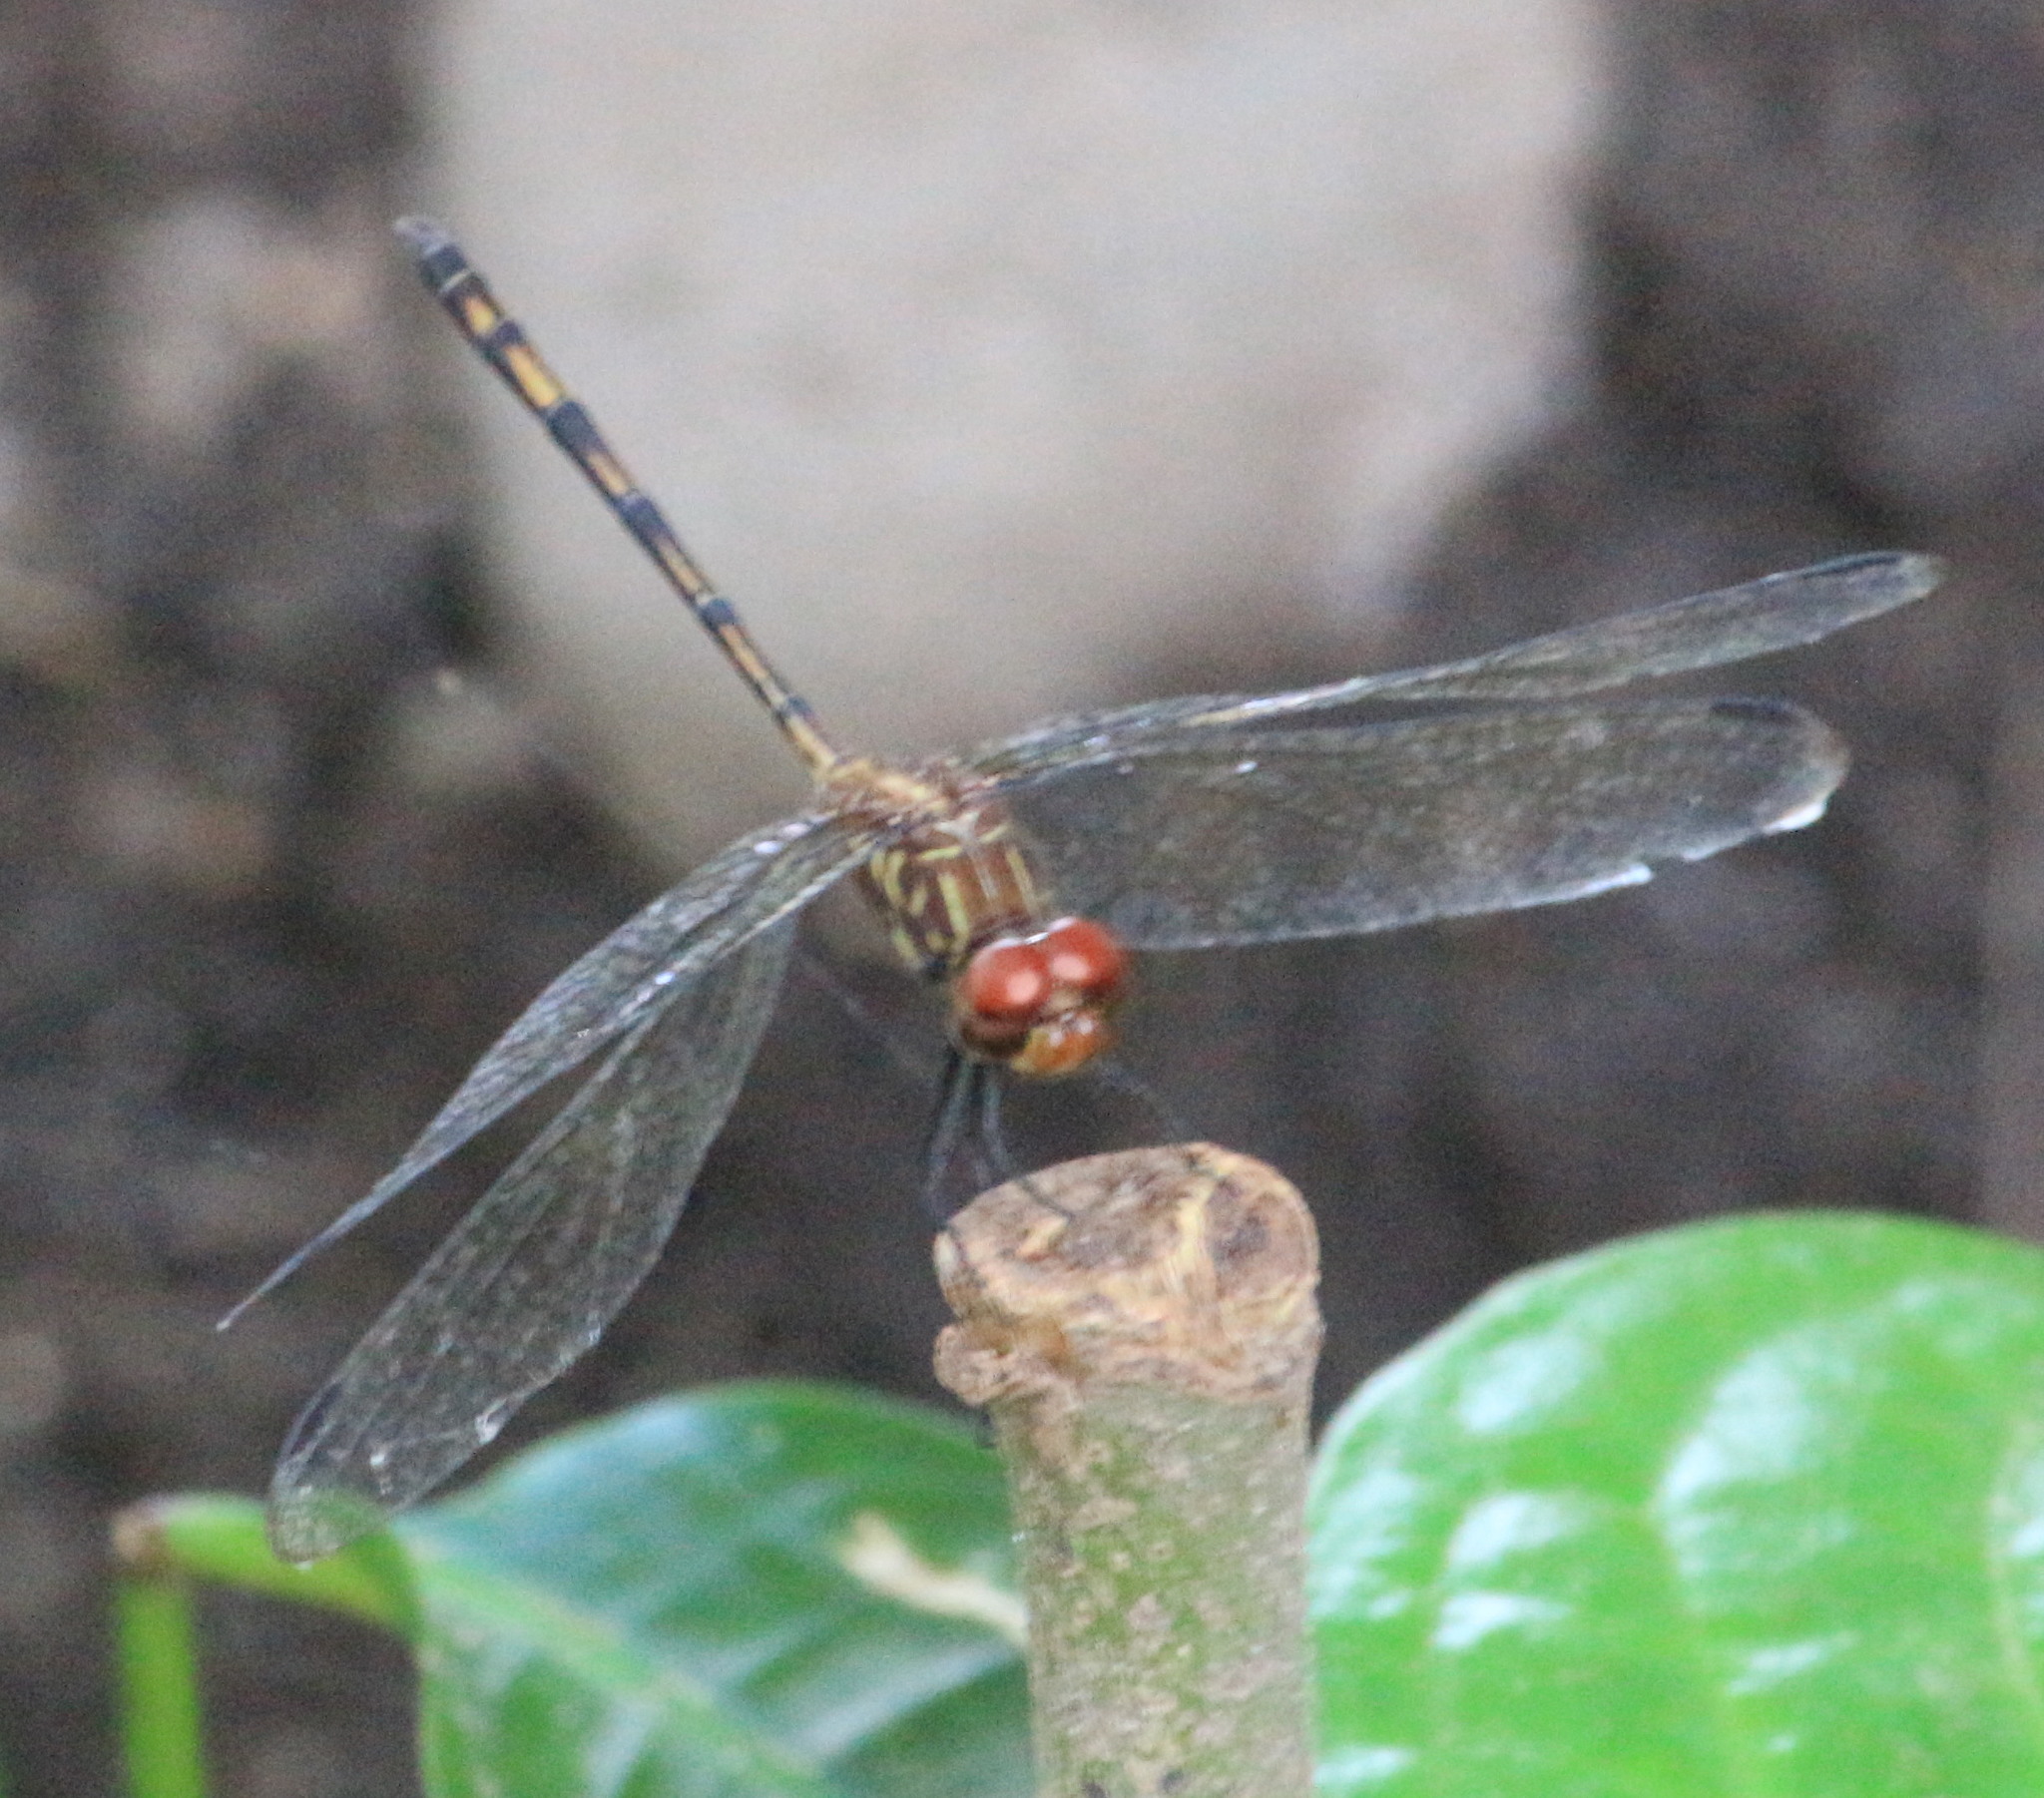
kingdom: Animalia
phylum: Arthropoda
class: Insecta
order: Odonata
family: Libellulidae
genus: Dythemis
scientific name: Dythemis sterilis
